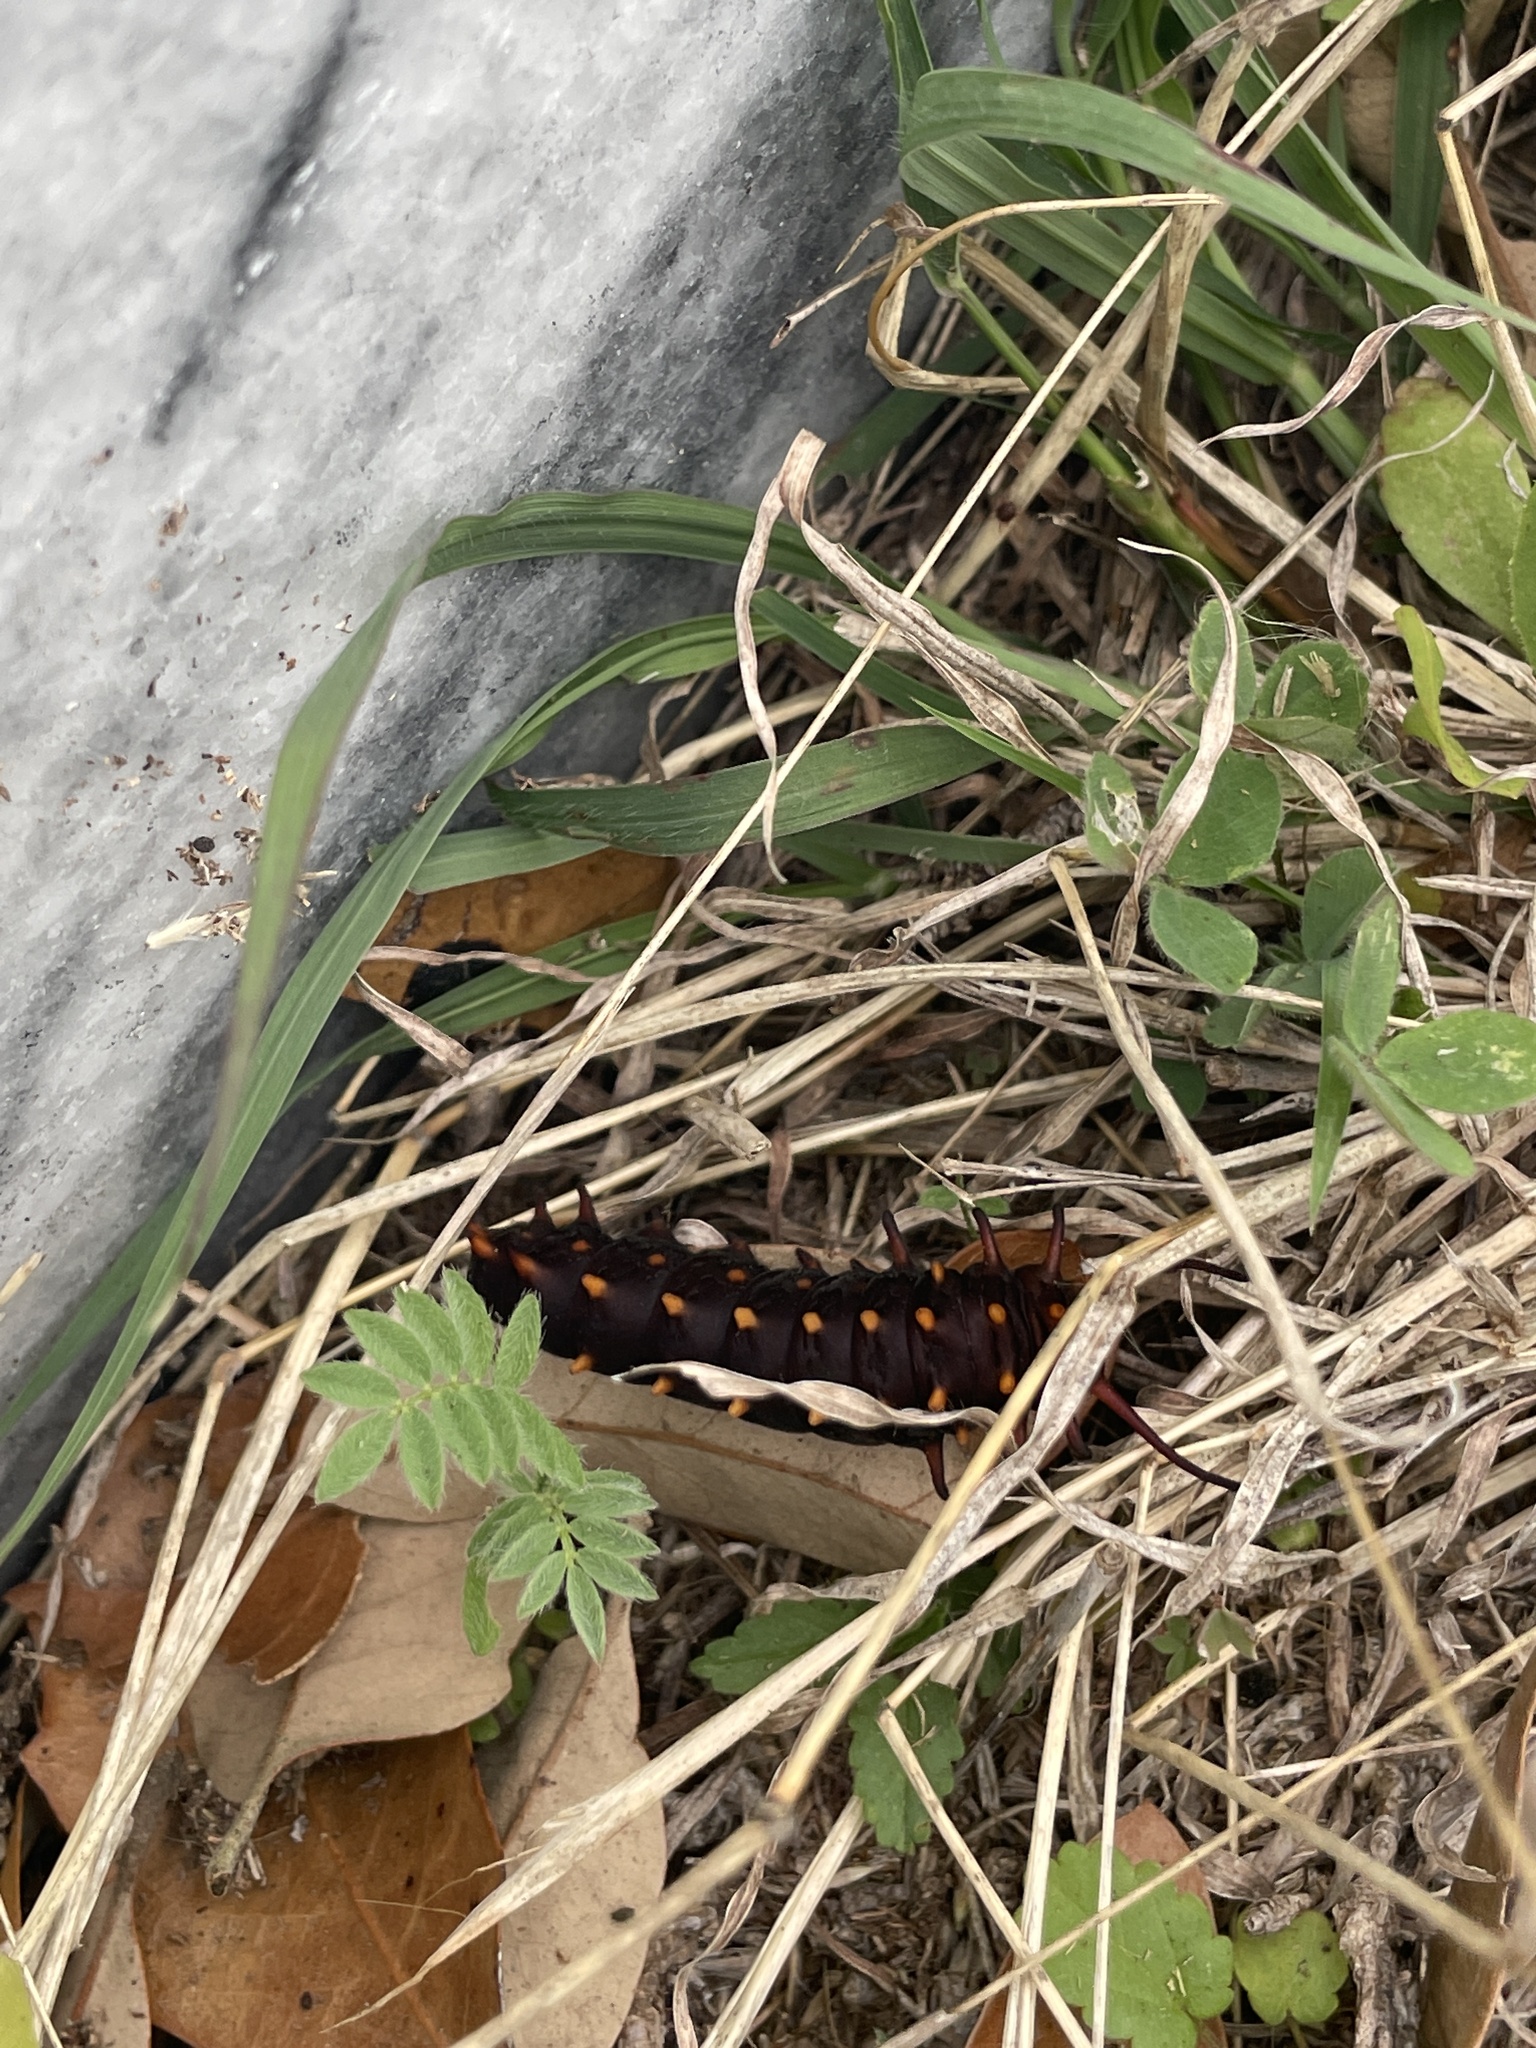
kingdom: Animalia
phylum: Arthropoda
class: Insecta
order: Lepidoptera
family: Papilionidae
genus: Battus
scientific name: Battus philenor
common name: Pipevine swallowtail
